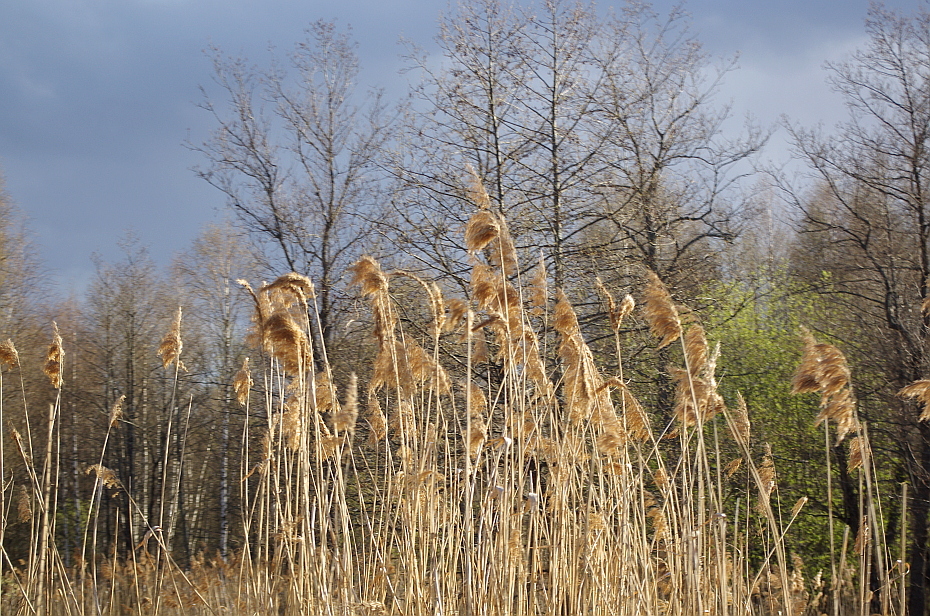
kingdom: Plantae
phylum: Tracheophyta
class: Liliopsida
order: Poales
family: Poaceae
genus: Phragmites
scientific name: Phragmites australis
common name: Common reed
